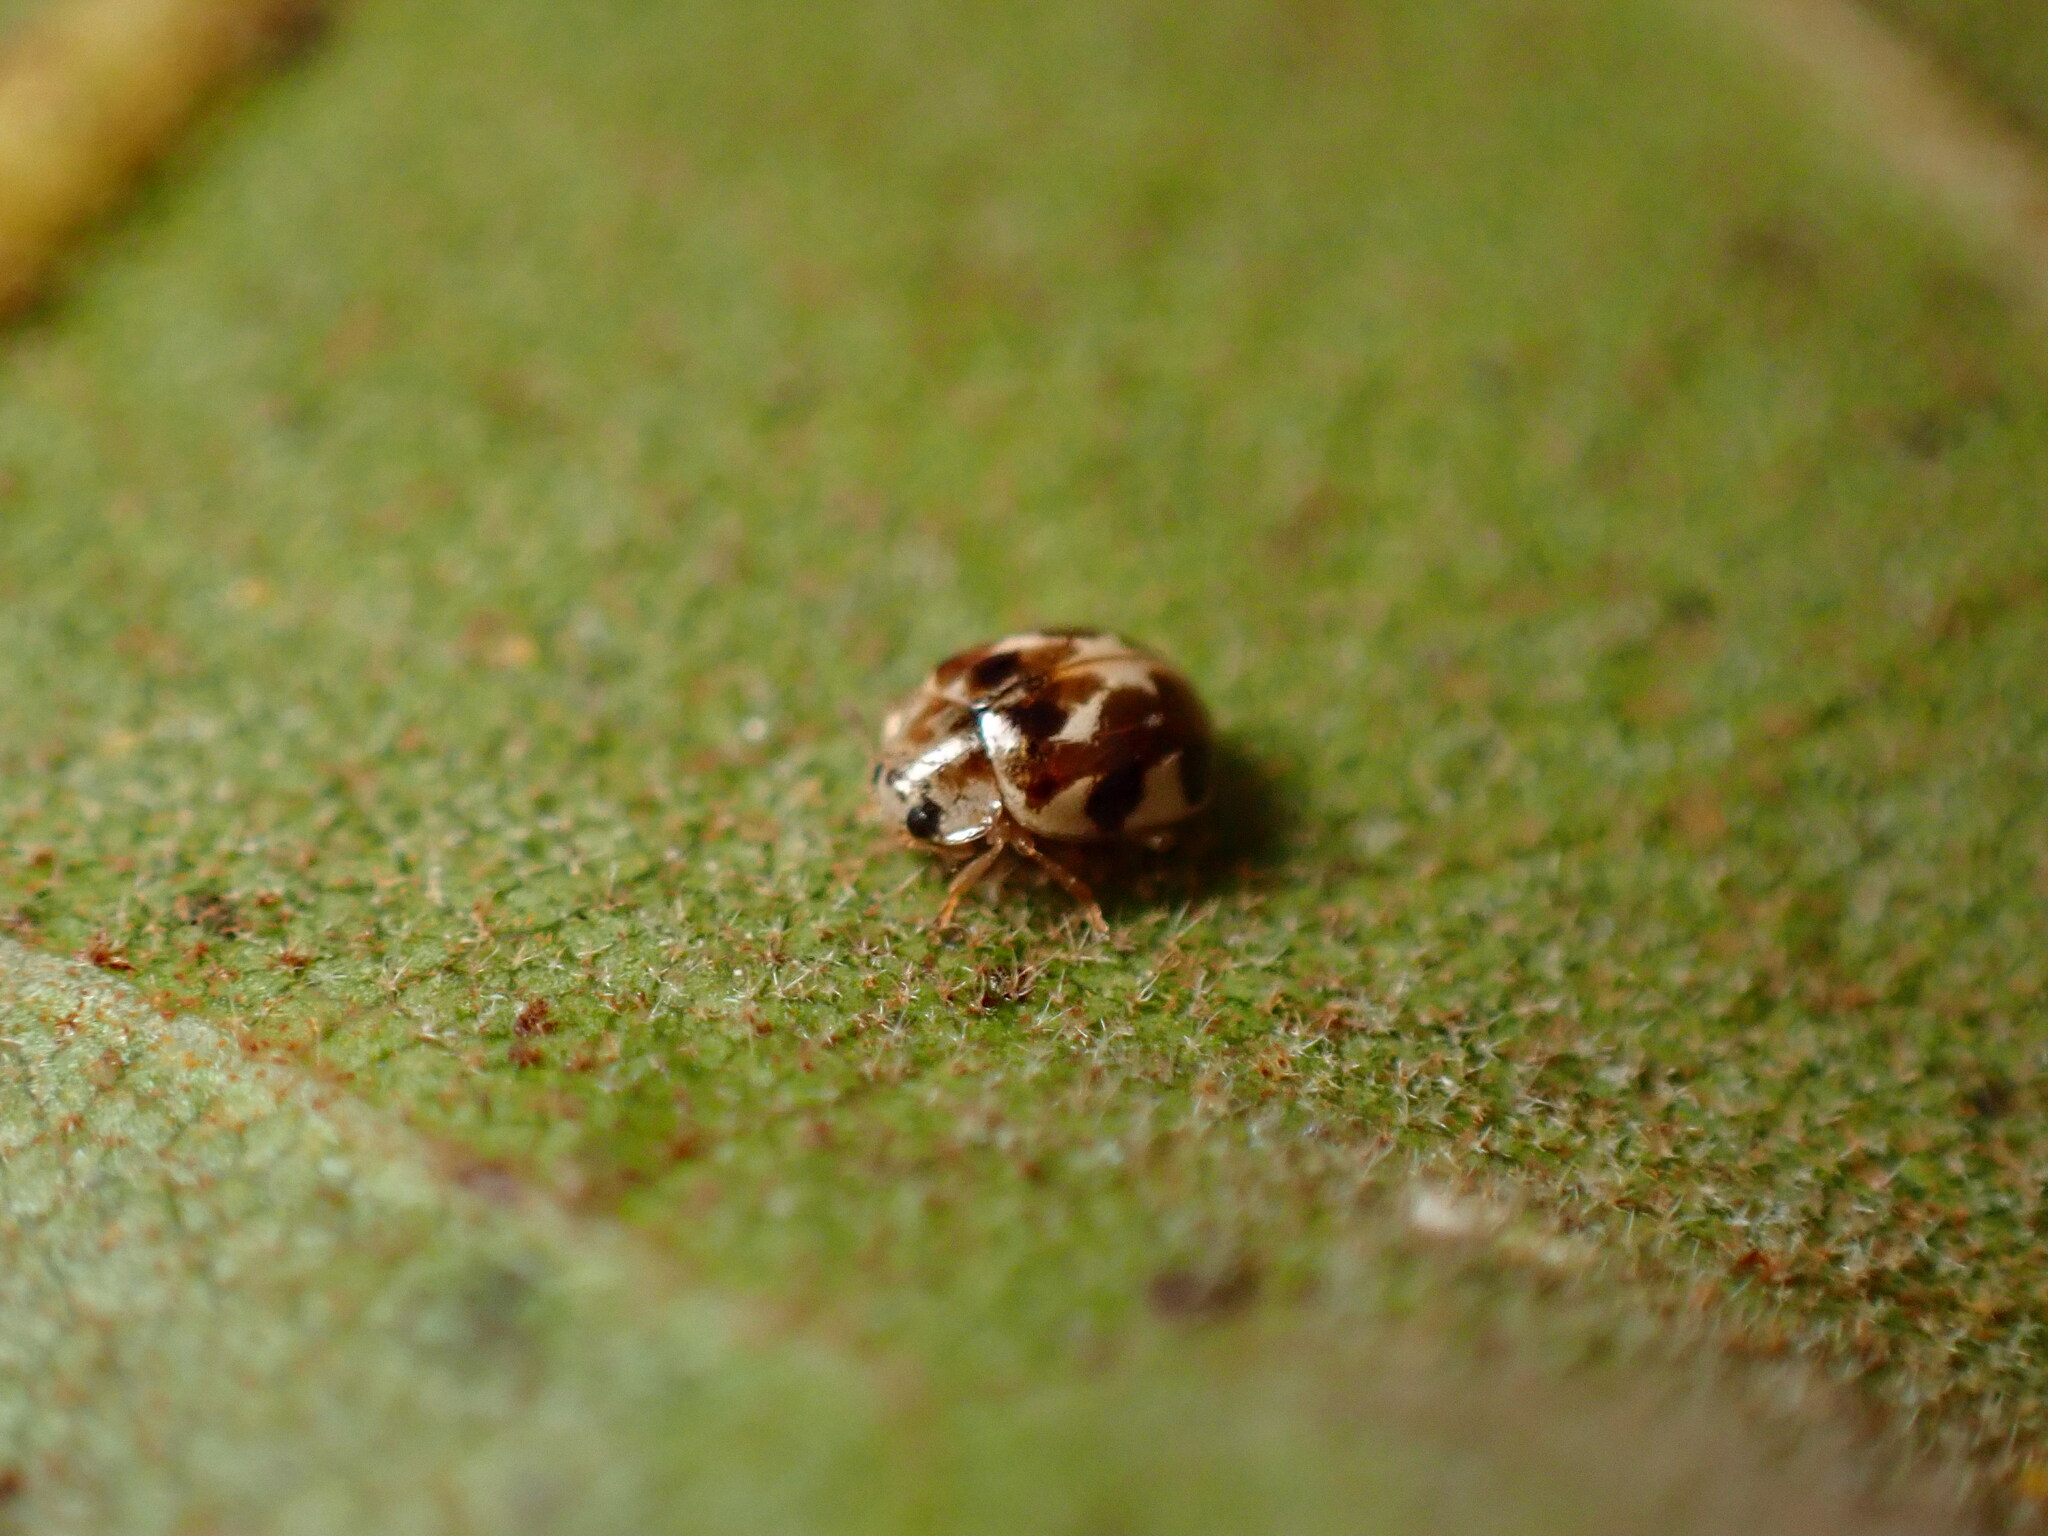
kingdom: Animalia
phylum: Arthropoda
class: Insecta
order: Coleoptera
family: Coccinellidae
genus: Psyllobora
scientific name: Psyllobora vigintimaculata
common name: Ladybird beetle
